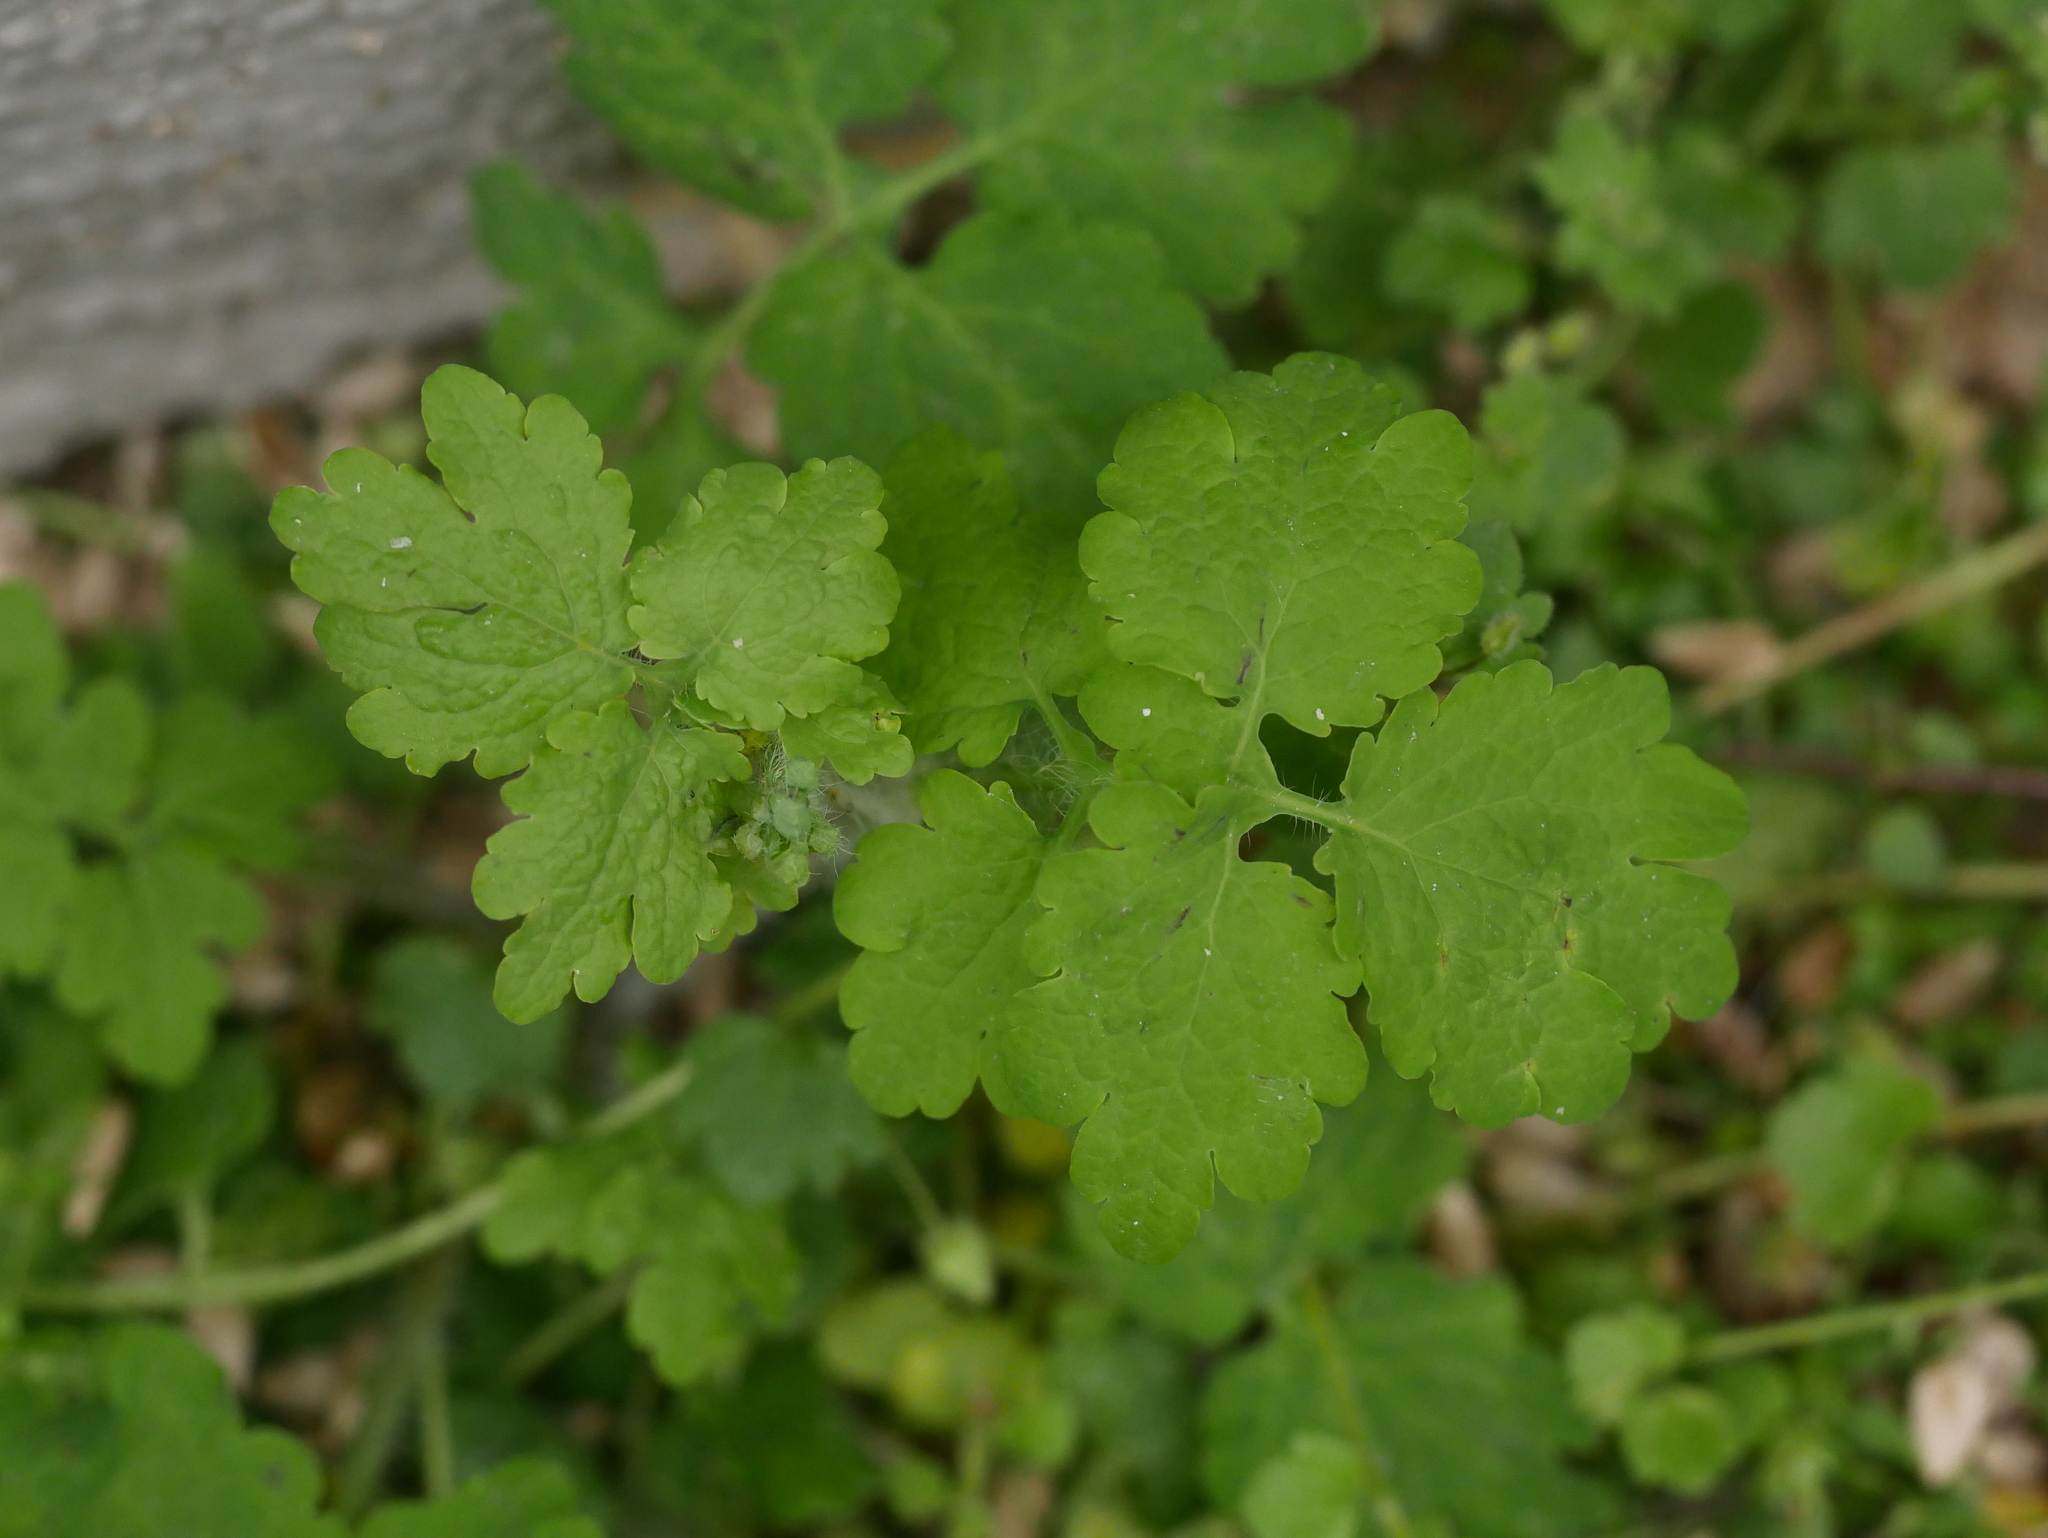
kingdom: Plantae
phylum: Tracheophyta
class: Magnoliopsida
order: Ranunculales
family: Papaveraceae
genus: Chelidonium
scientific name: Chelidonium majus
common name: Greater celandine
